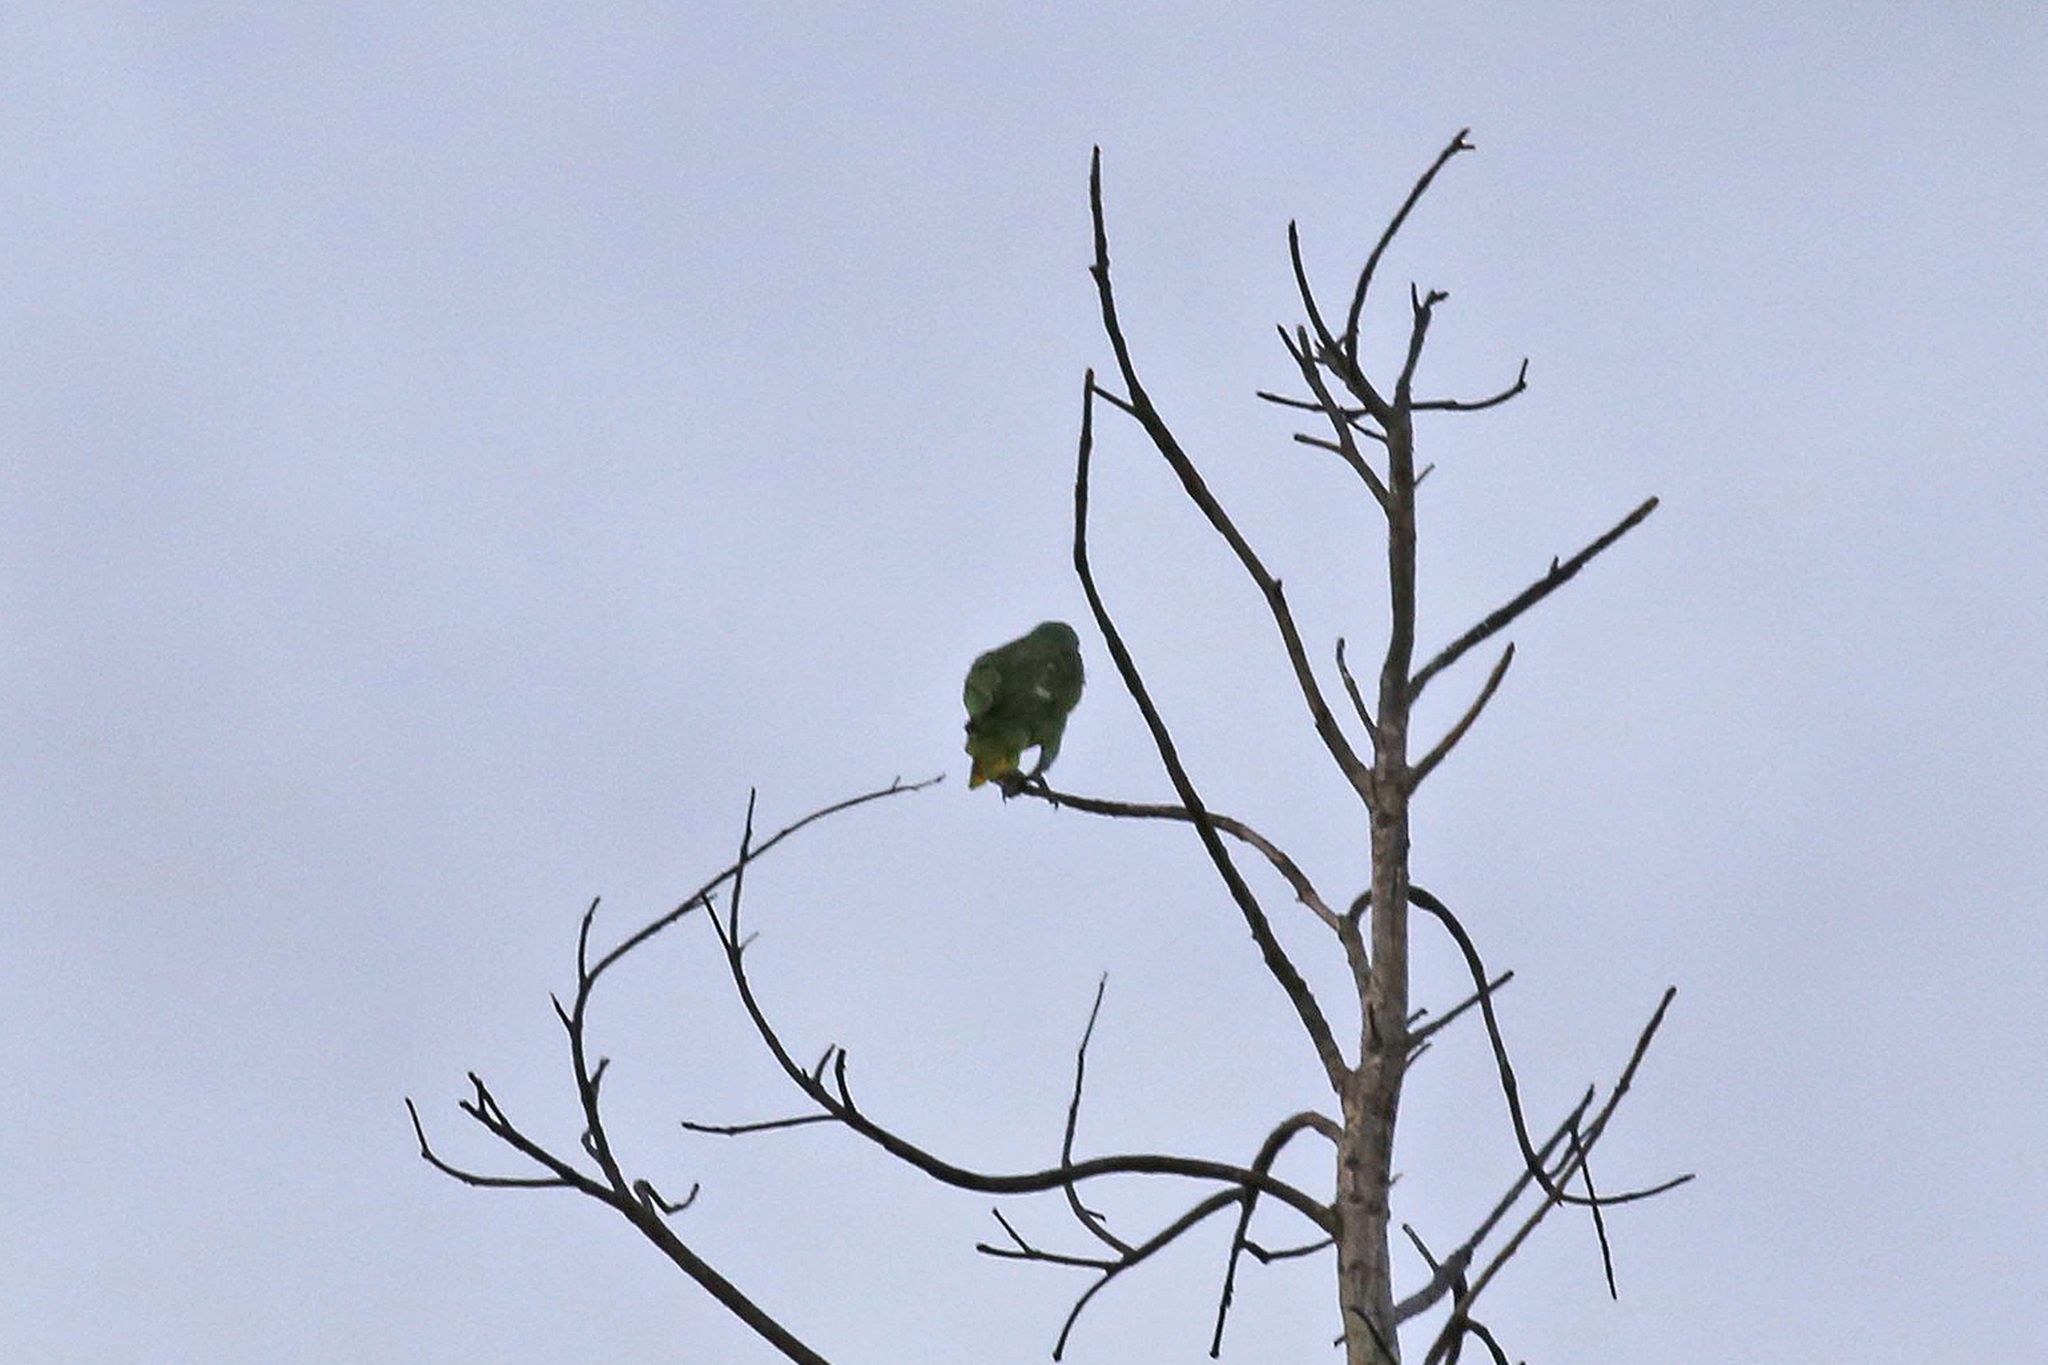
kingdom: Animalia
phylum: Chordata
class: Aves
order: Psittaciformes
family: Psittacidae
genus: Amazona
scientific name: Amazona amazonica
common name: Orange-winged amazon
